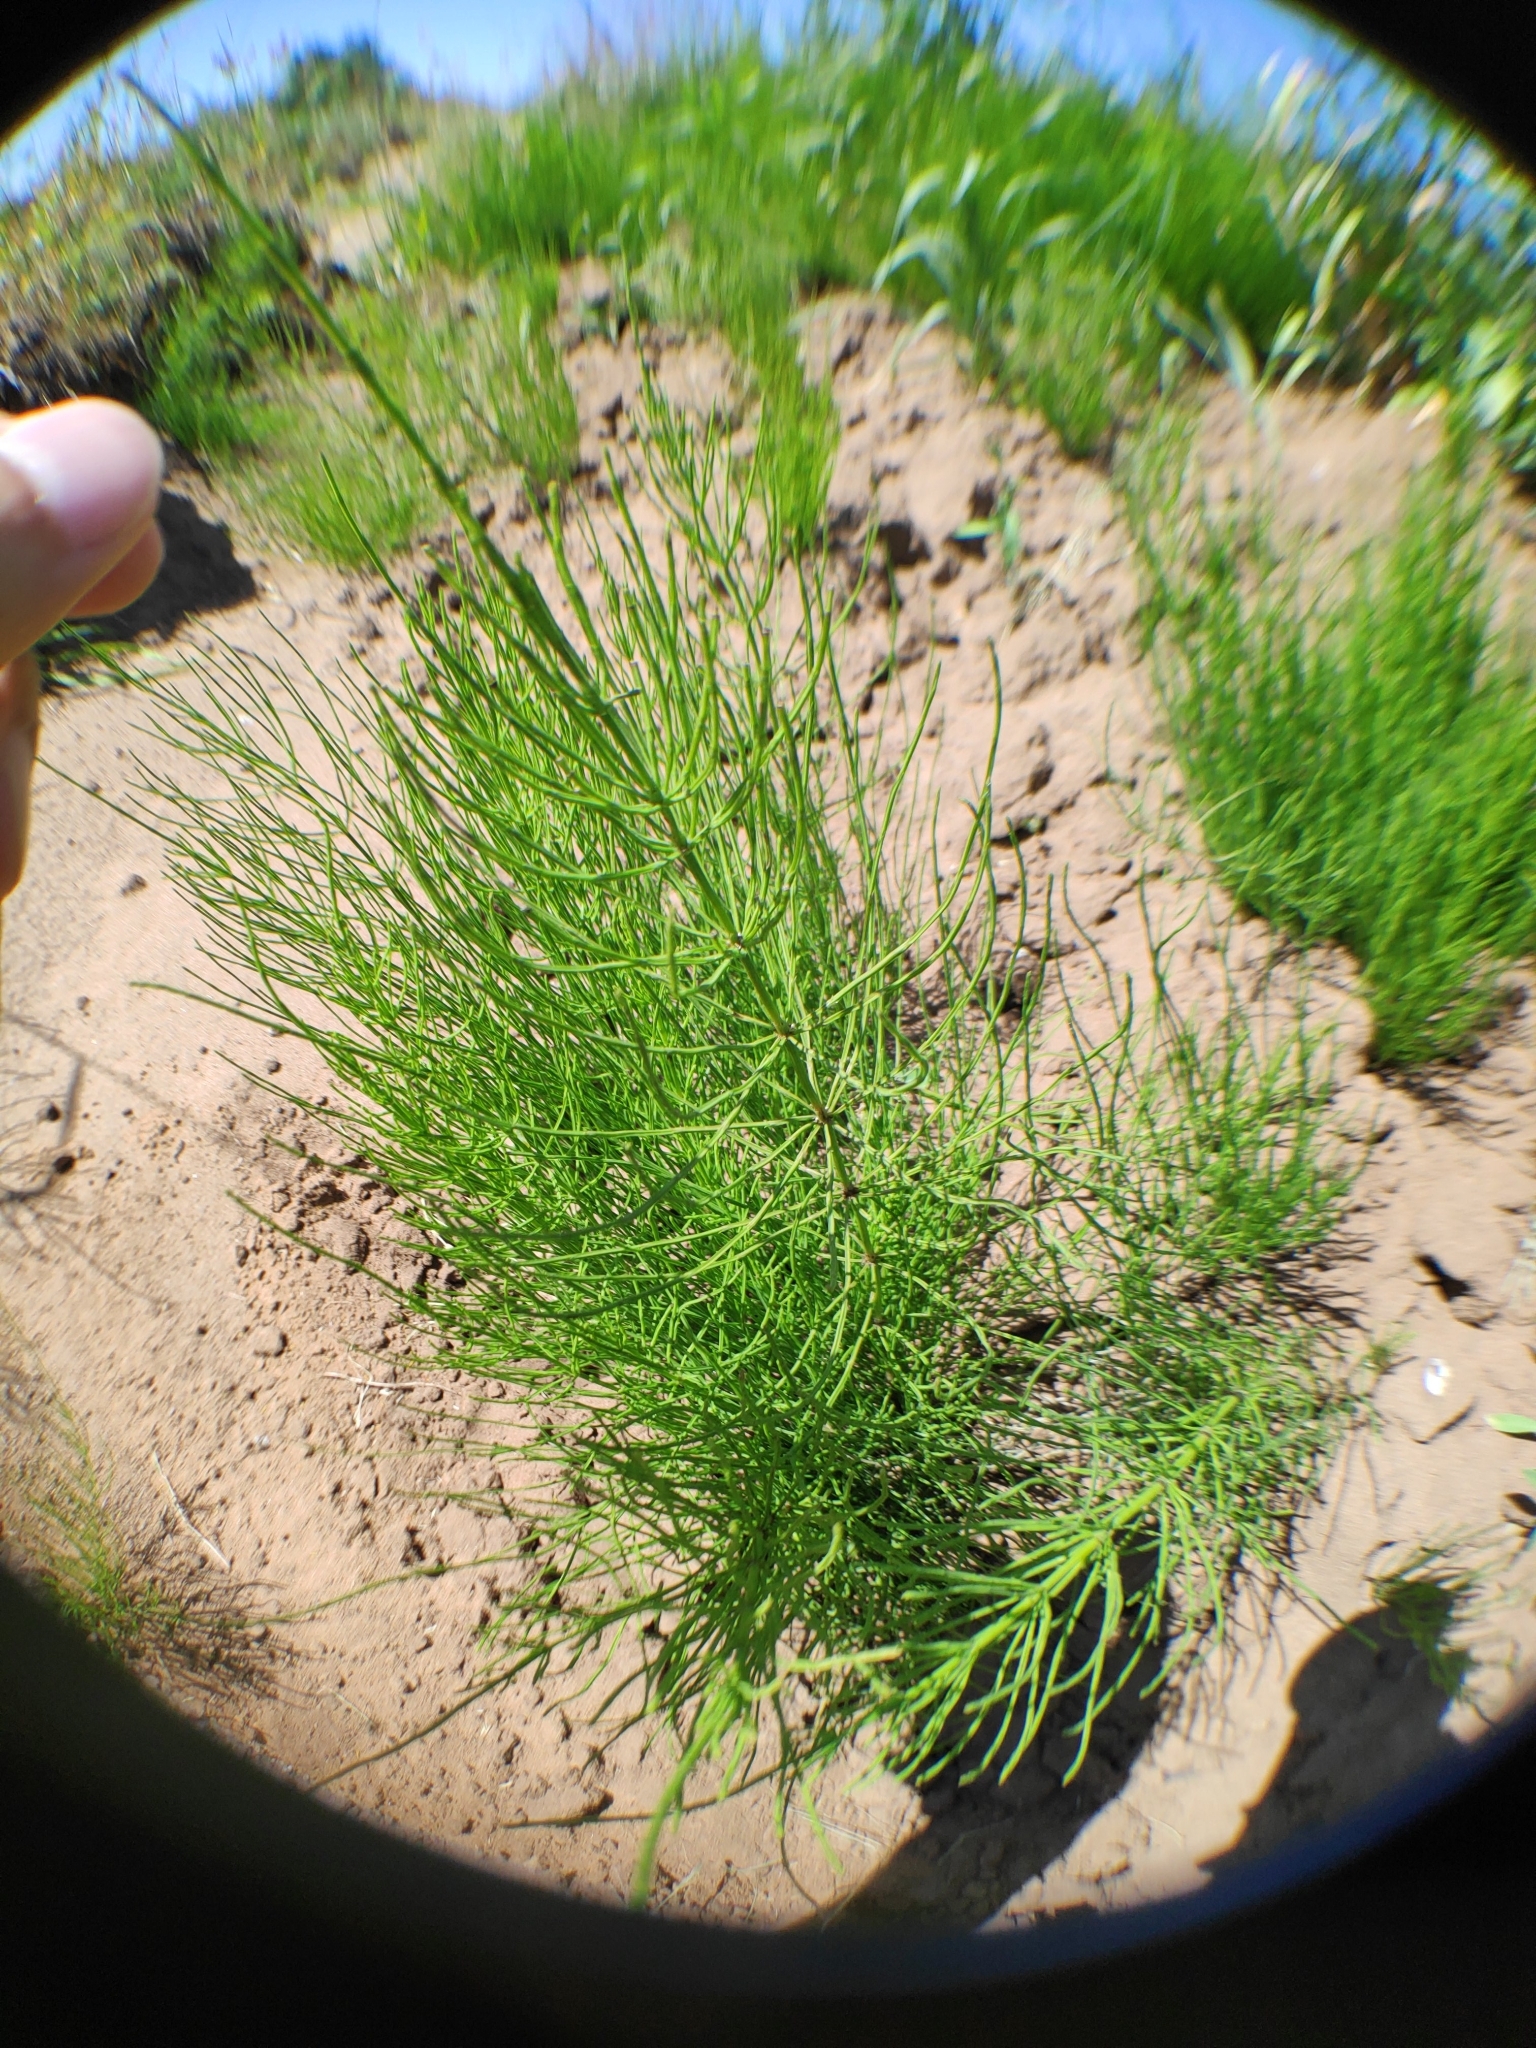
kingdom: Plantae
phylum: Tracheophyta
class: Polypodiopsida
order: Equisetales
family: Equisetaceae
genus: Equisetum
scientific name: Equisetum arvense
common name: Field horsetail
